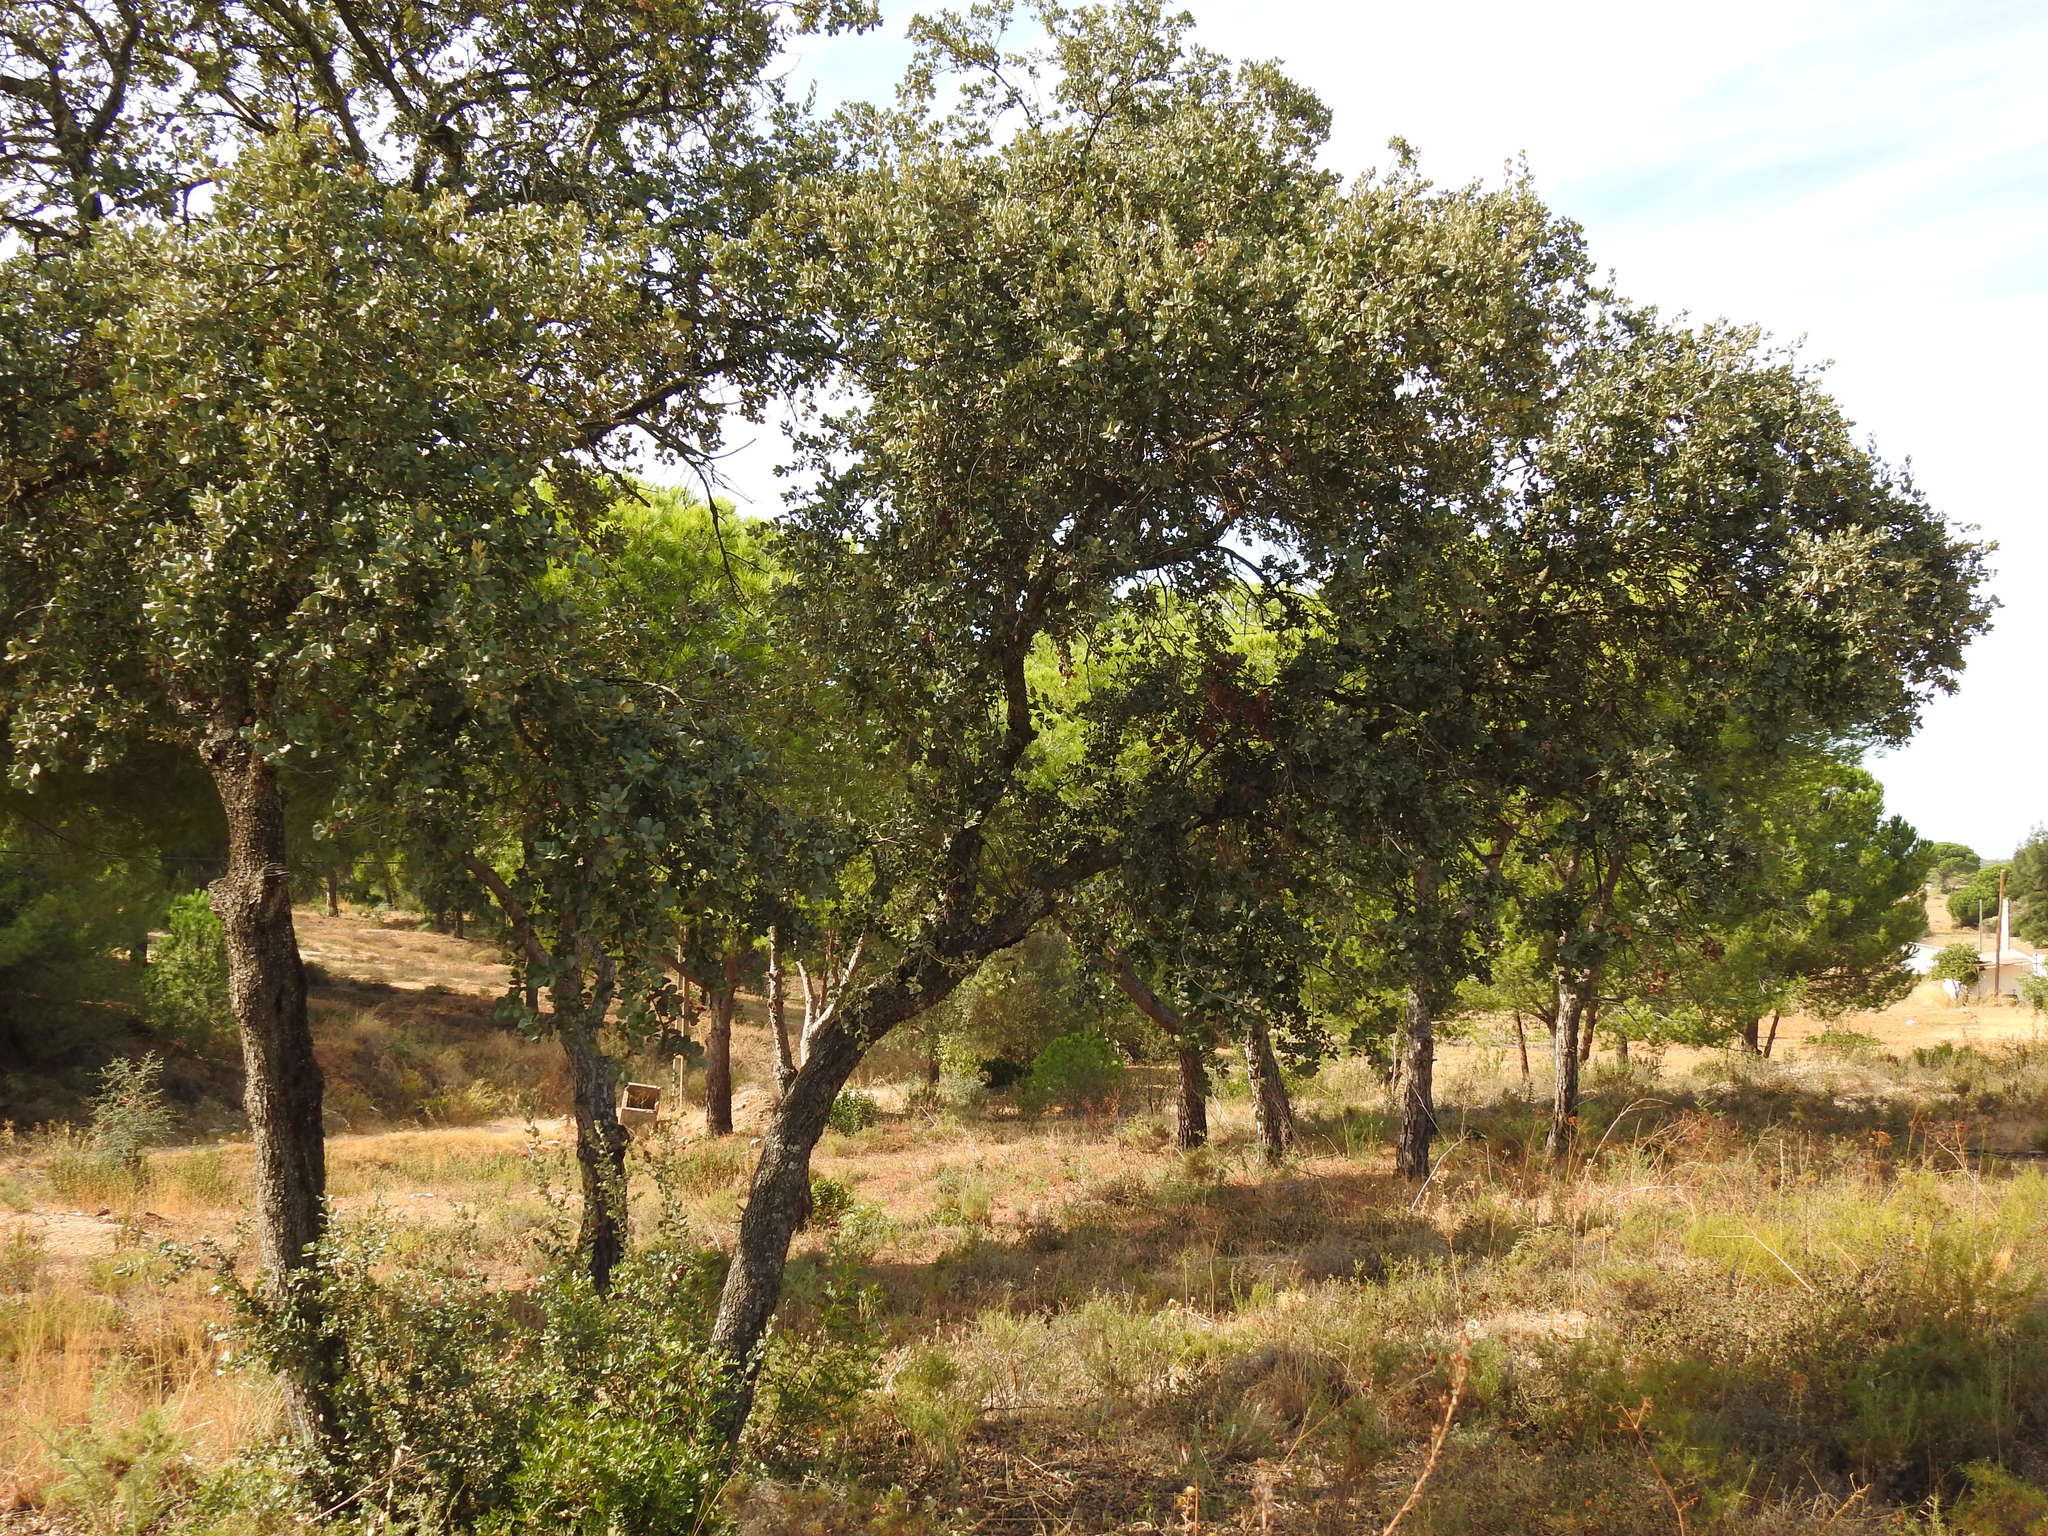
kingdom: Plantae
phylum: Tracheophyta
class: Magnoliopsida
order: Fagales
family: Fagaceae
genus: Quercus
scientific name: Quercus rotundifolia
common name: Holm oak
